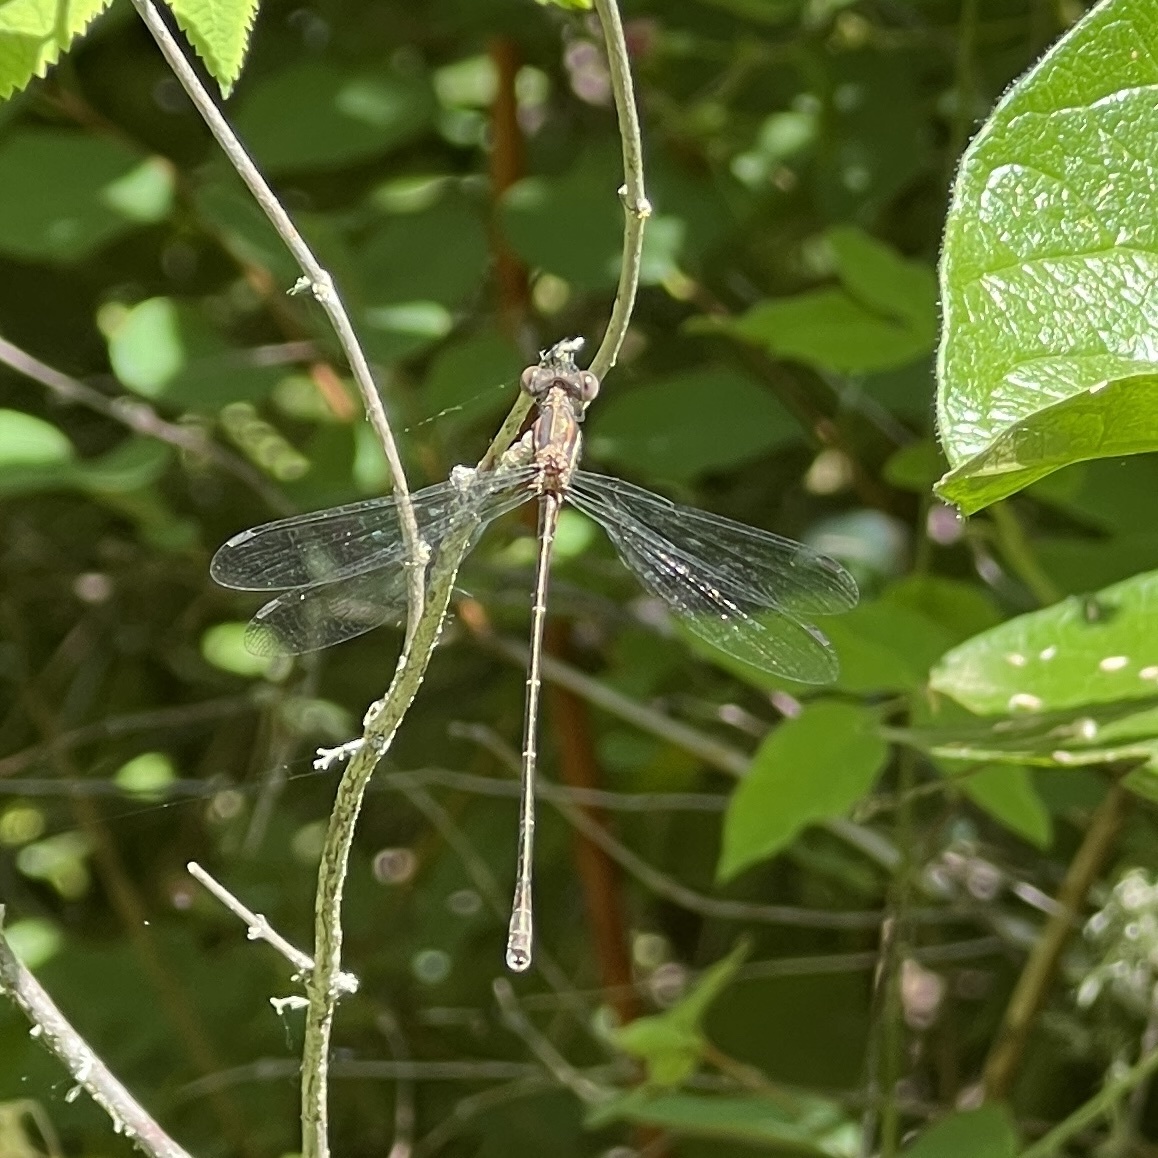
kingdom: Animalia
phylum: Arthropoda
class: Insecta
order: Odonata
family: Lestidae
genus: Lestes
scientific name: Lestes congener
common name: Spotted spreadwing
